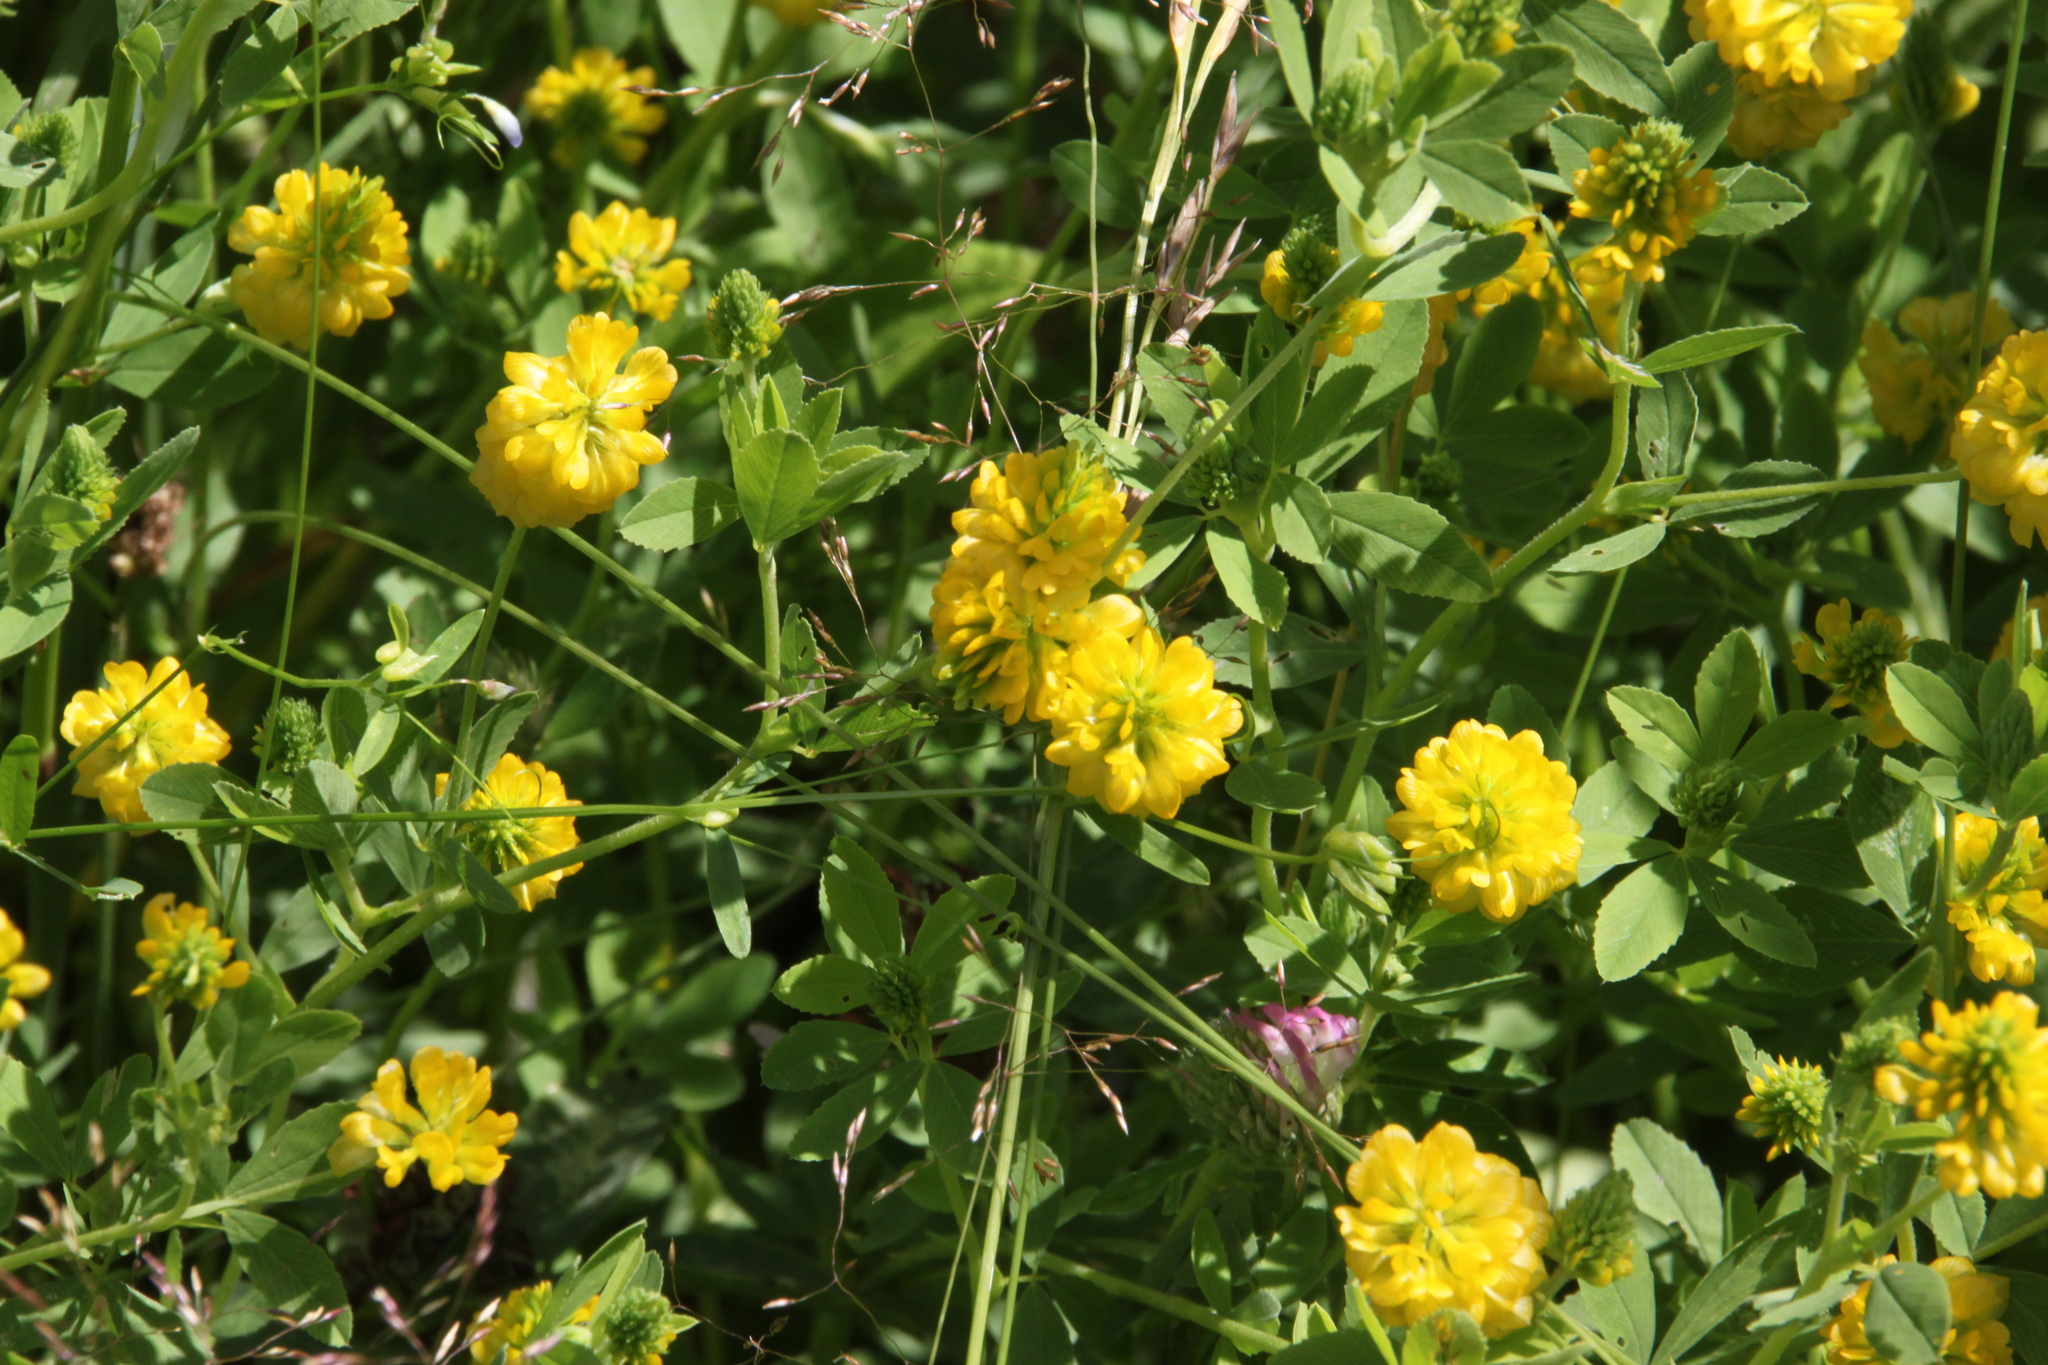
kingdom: Plantae
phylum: Tracheophyta
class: Magnoliopsida
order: Fabales
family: Fabaceae
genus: Trifolium
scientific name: Trifolium aureum
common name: Golden clover
